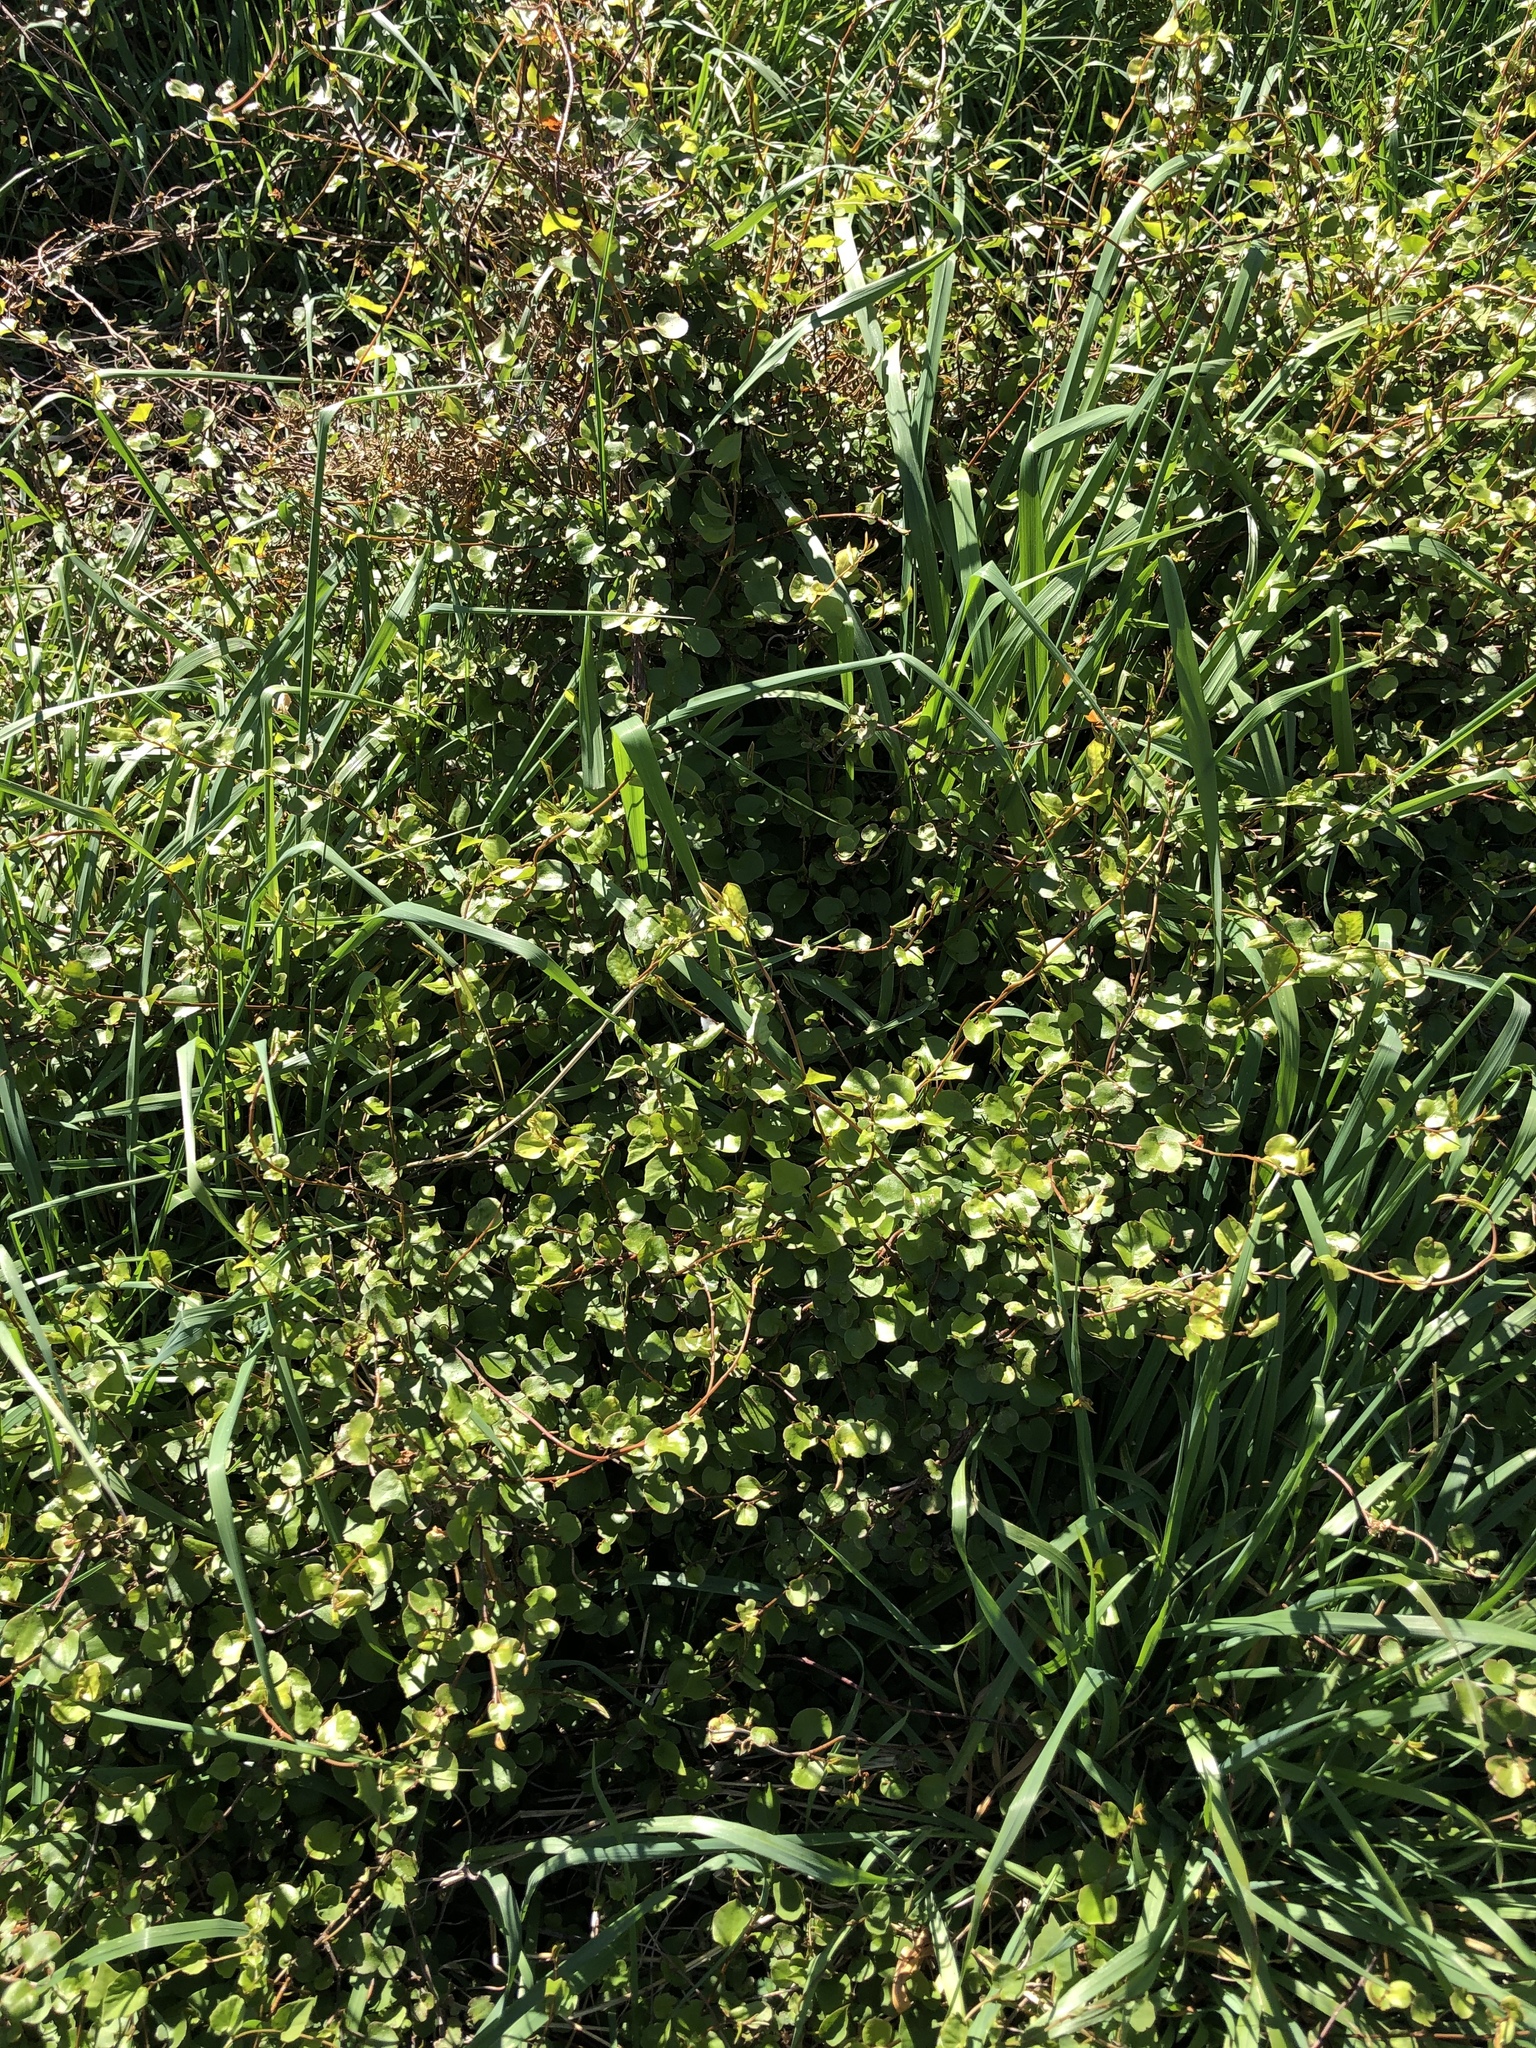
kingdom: Plantae
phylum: Tracheophyta
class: Magnoliopsida
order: Caryophyllales
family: Polygonaceae
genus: Muehlenbeckia
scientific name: Muehlenbeckia australis
